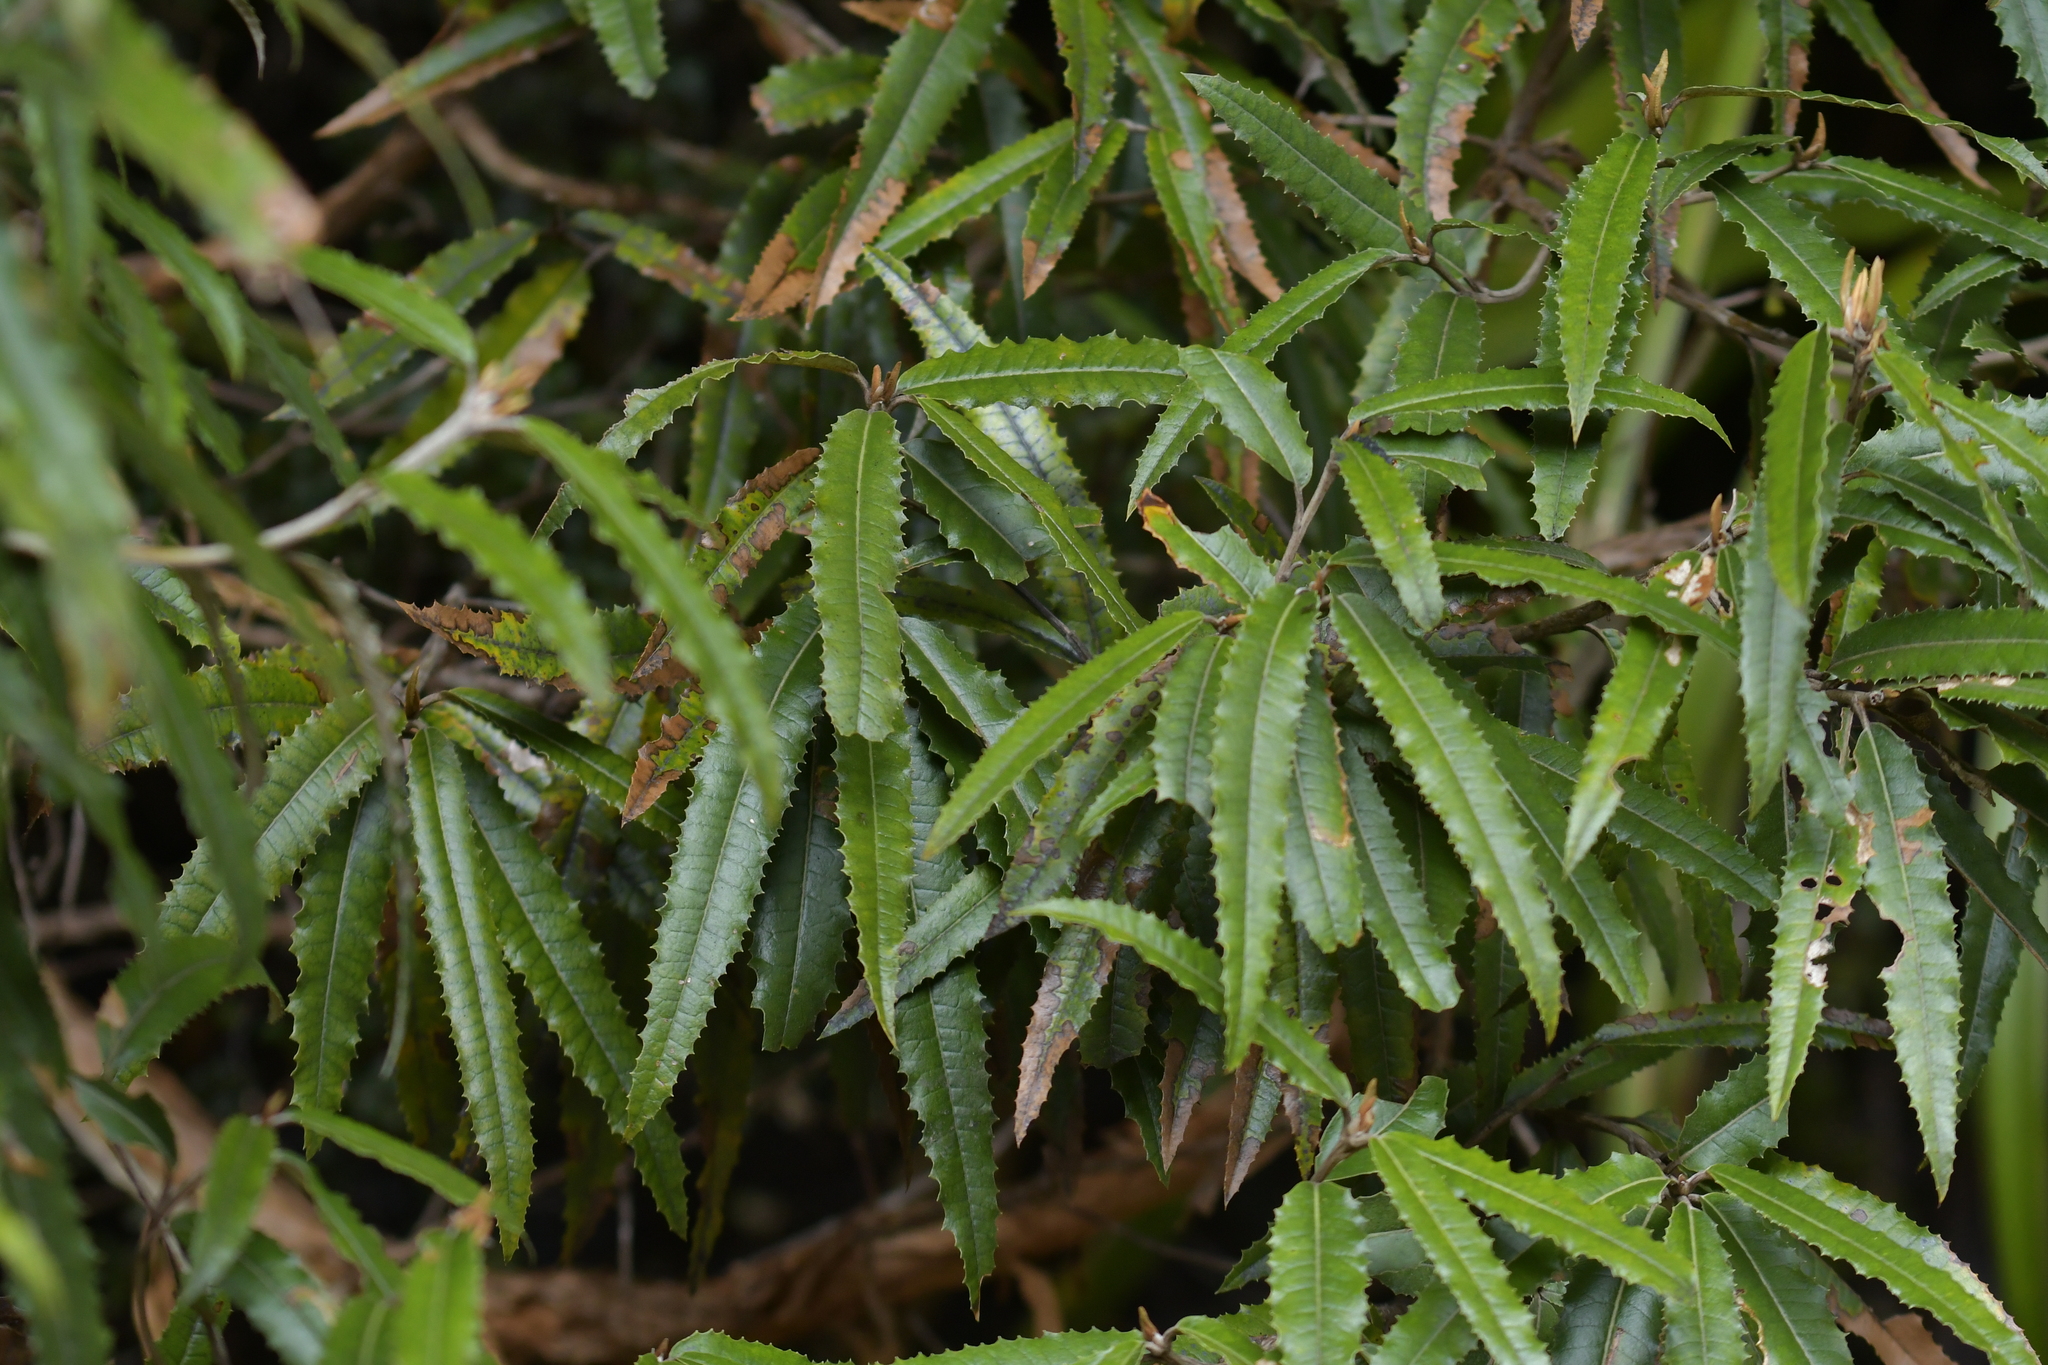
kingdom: Plantae
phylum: Tracheophyta
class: Magnoliopsida
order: Asterales
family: Asteraceae
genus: Olearia
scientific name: Olearia ilicifolia
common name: Maori-holly
